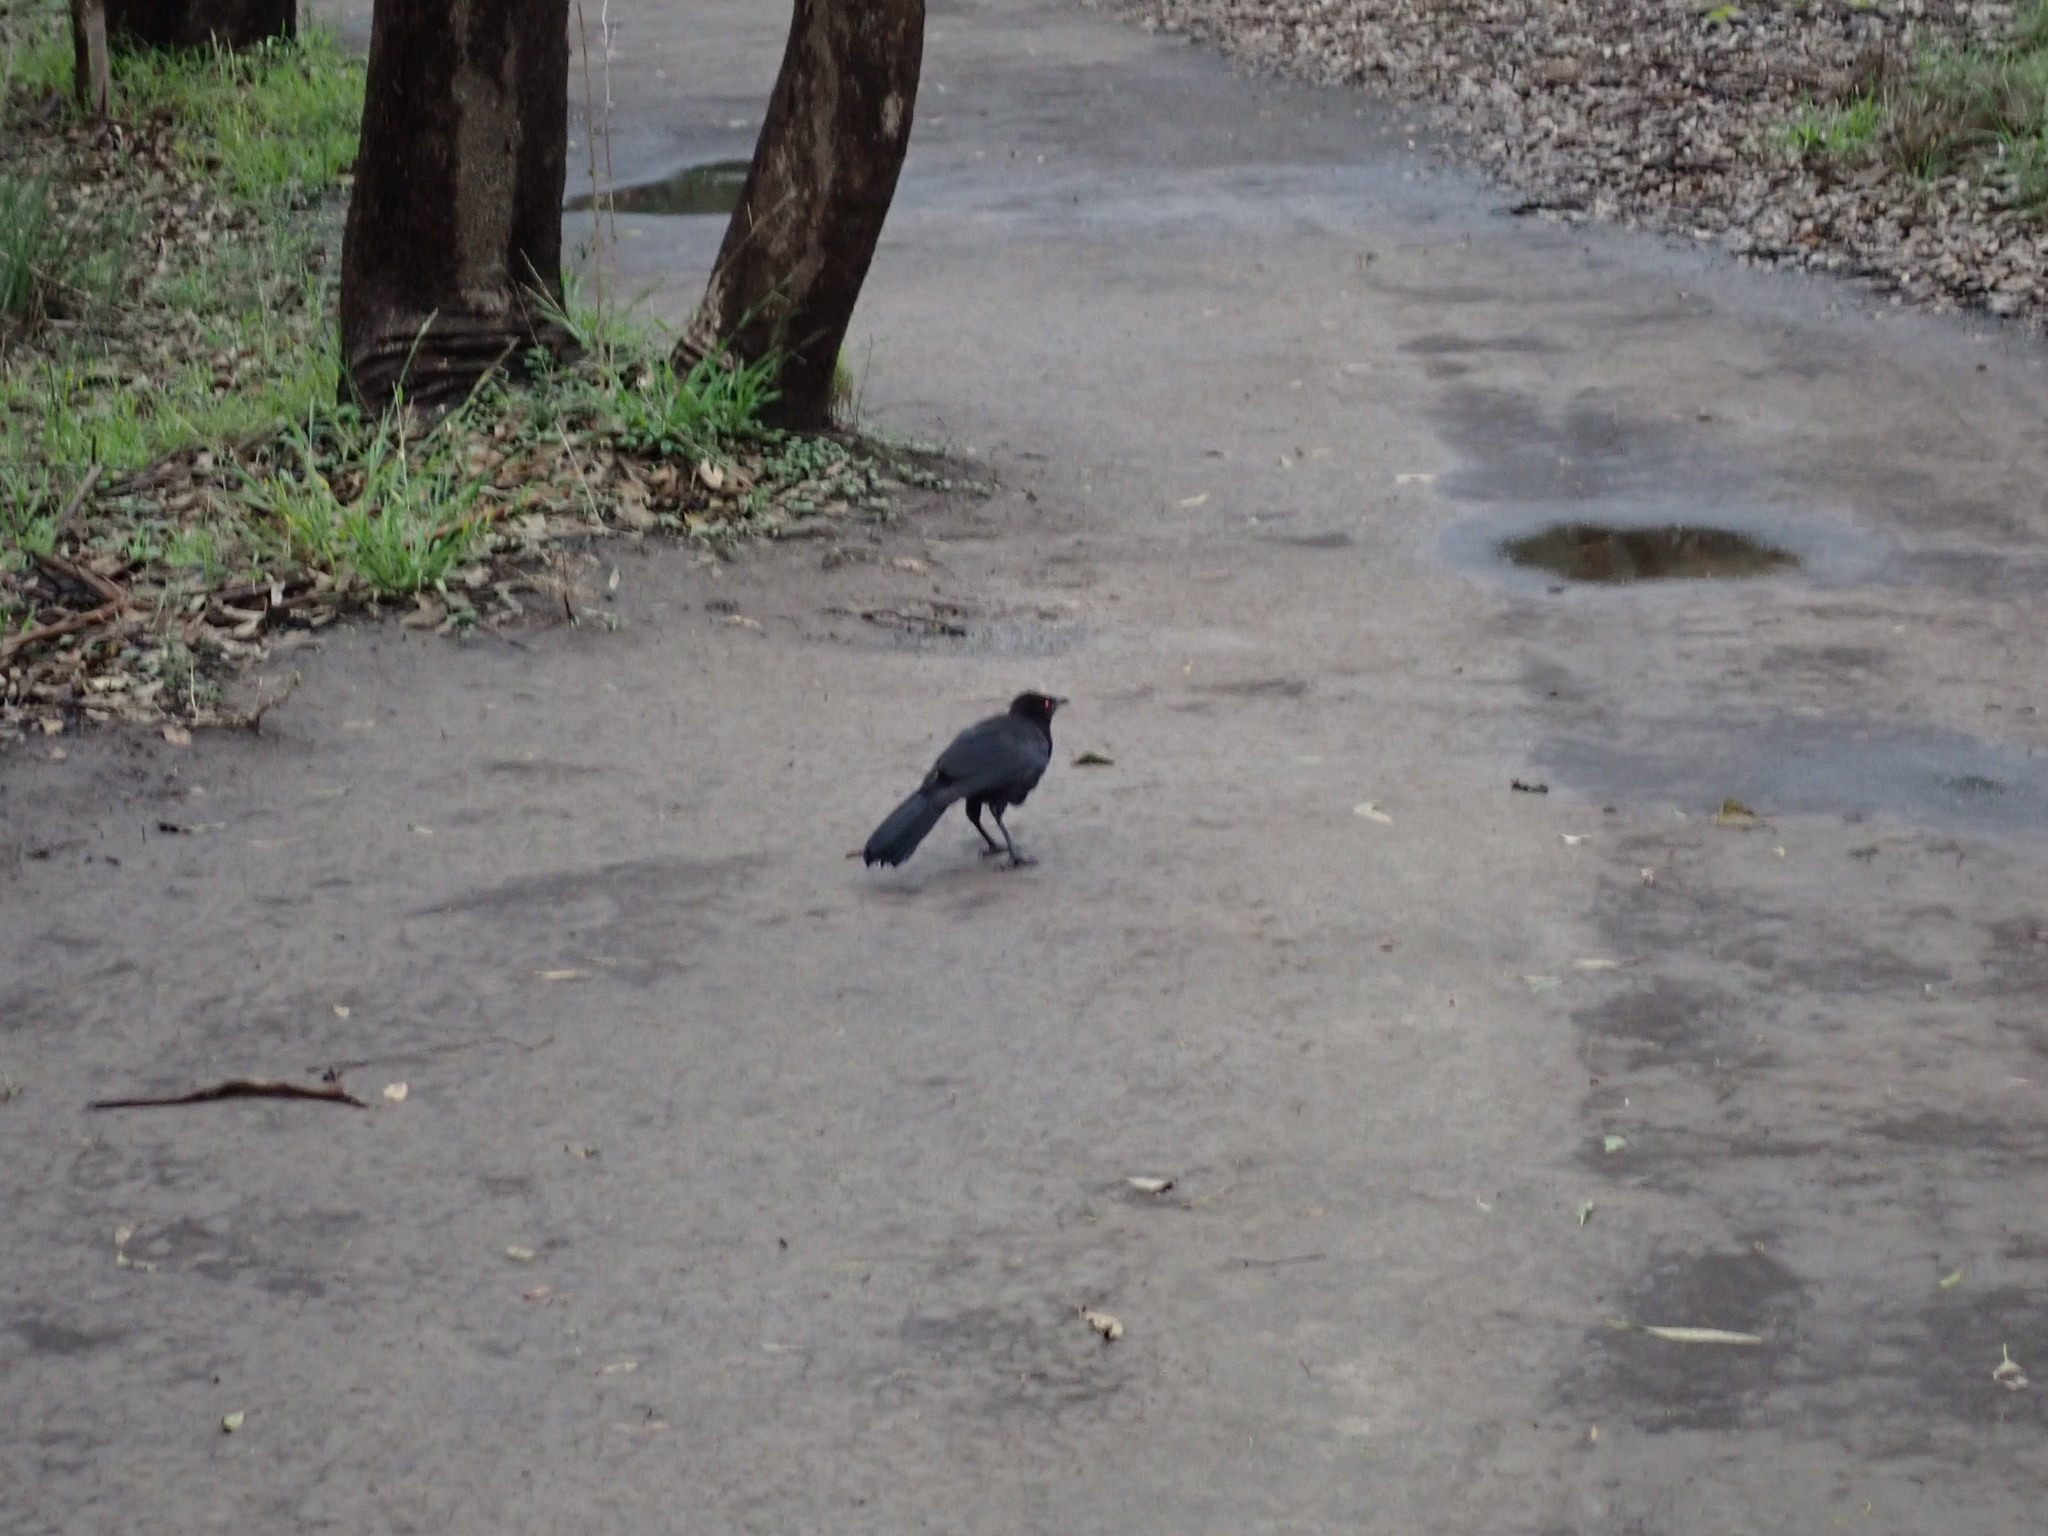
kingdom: Animalia
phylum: Chordata
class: Aves
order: Passeriformes
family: Corcoracidae
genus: Corcorax
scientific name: Corcorax melanoramphos
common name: White-winged chough
